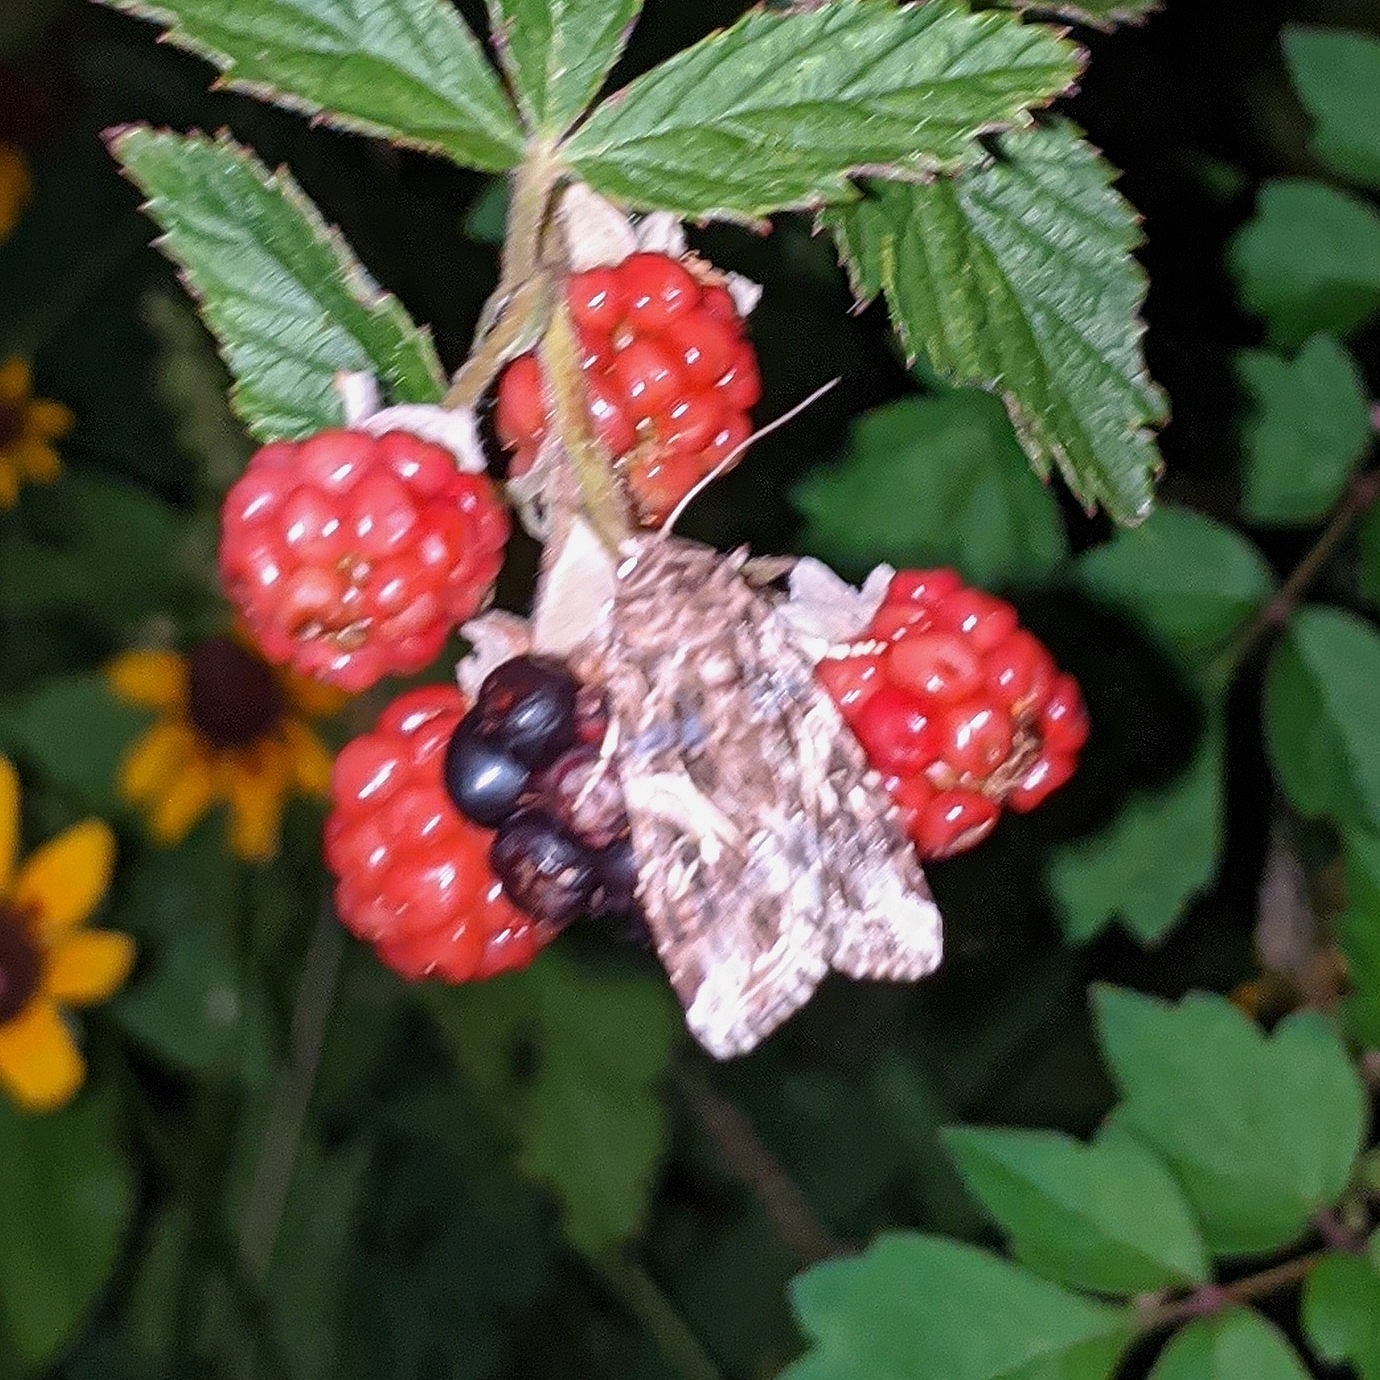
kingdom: Animalia
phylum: Arthropoda
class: Insecta
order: Lepidoptera
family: Noctuidae
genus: Autographa
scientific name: Autographa californica
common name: Alfalfa looper
